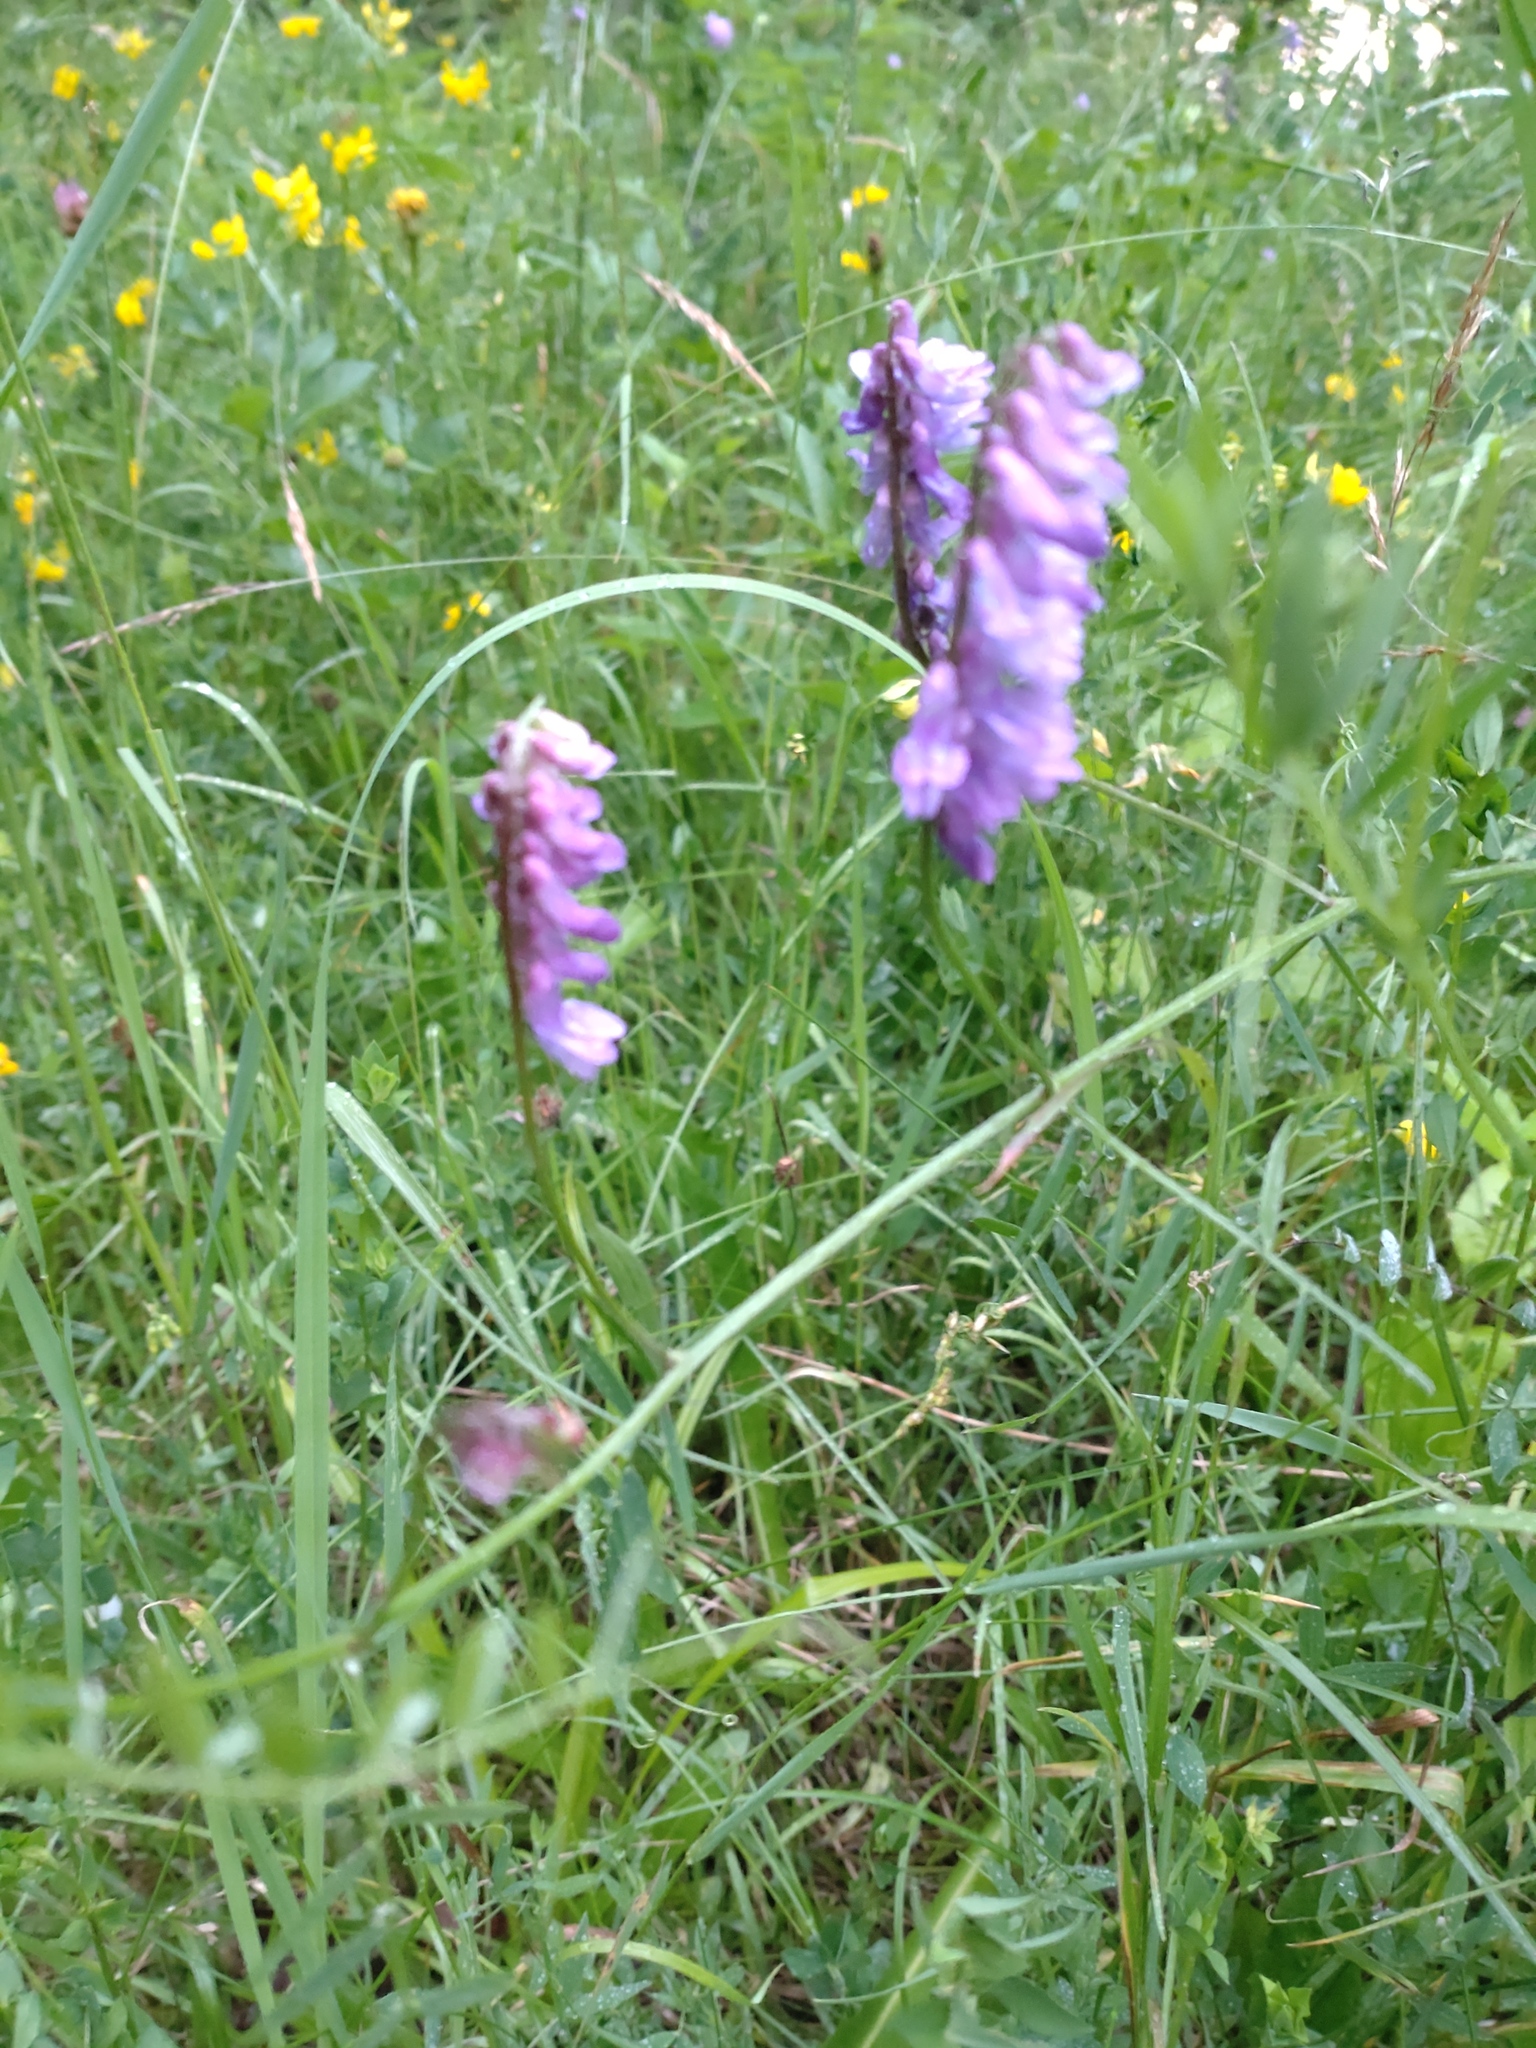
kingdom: Plantae
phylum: Tracheophyta
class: Magnoliopsida
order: Fabales
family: Fabaceae
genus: Vicia
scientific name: Vicia cracca
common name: Bird vetch
